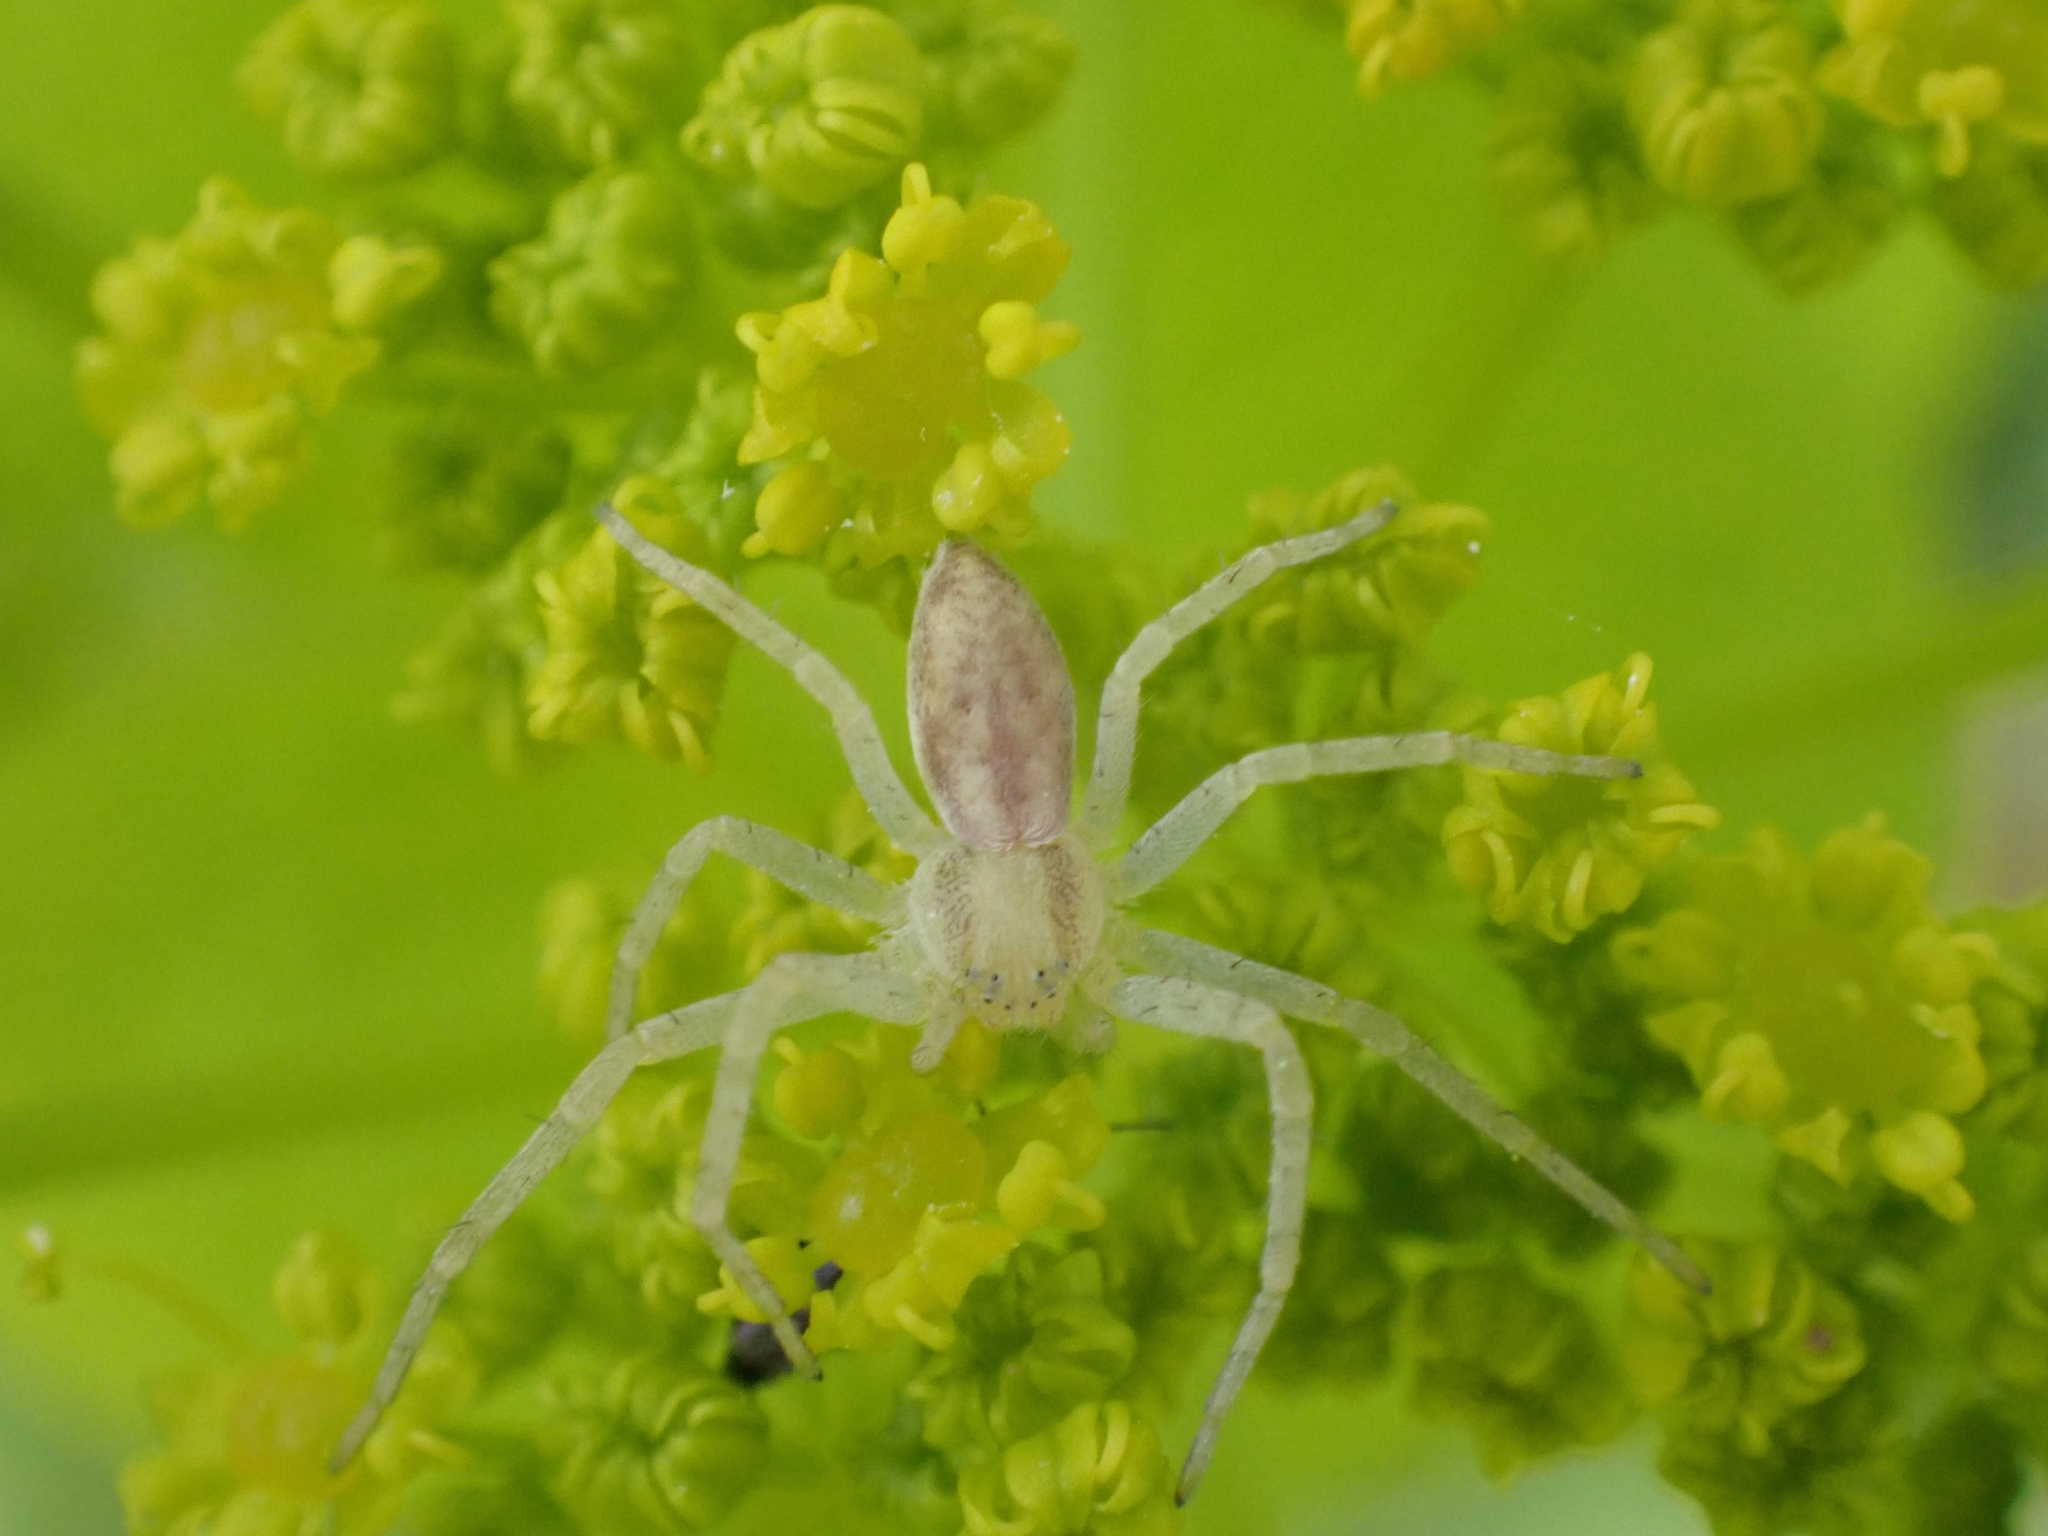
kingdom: Animalia
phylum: Arthropoda
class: Arachnida
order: Araneae
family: Philodromidae
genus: Philodromus
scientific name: Philodromus
